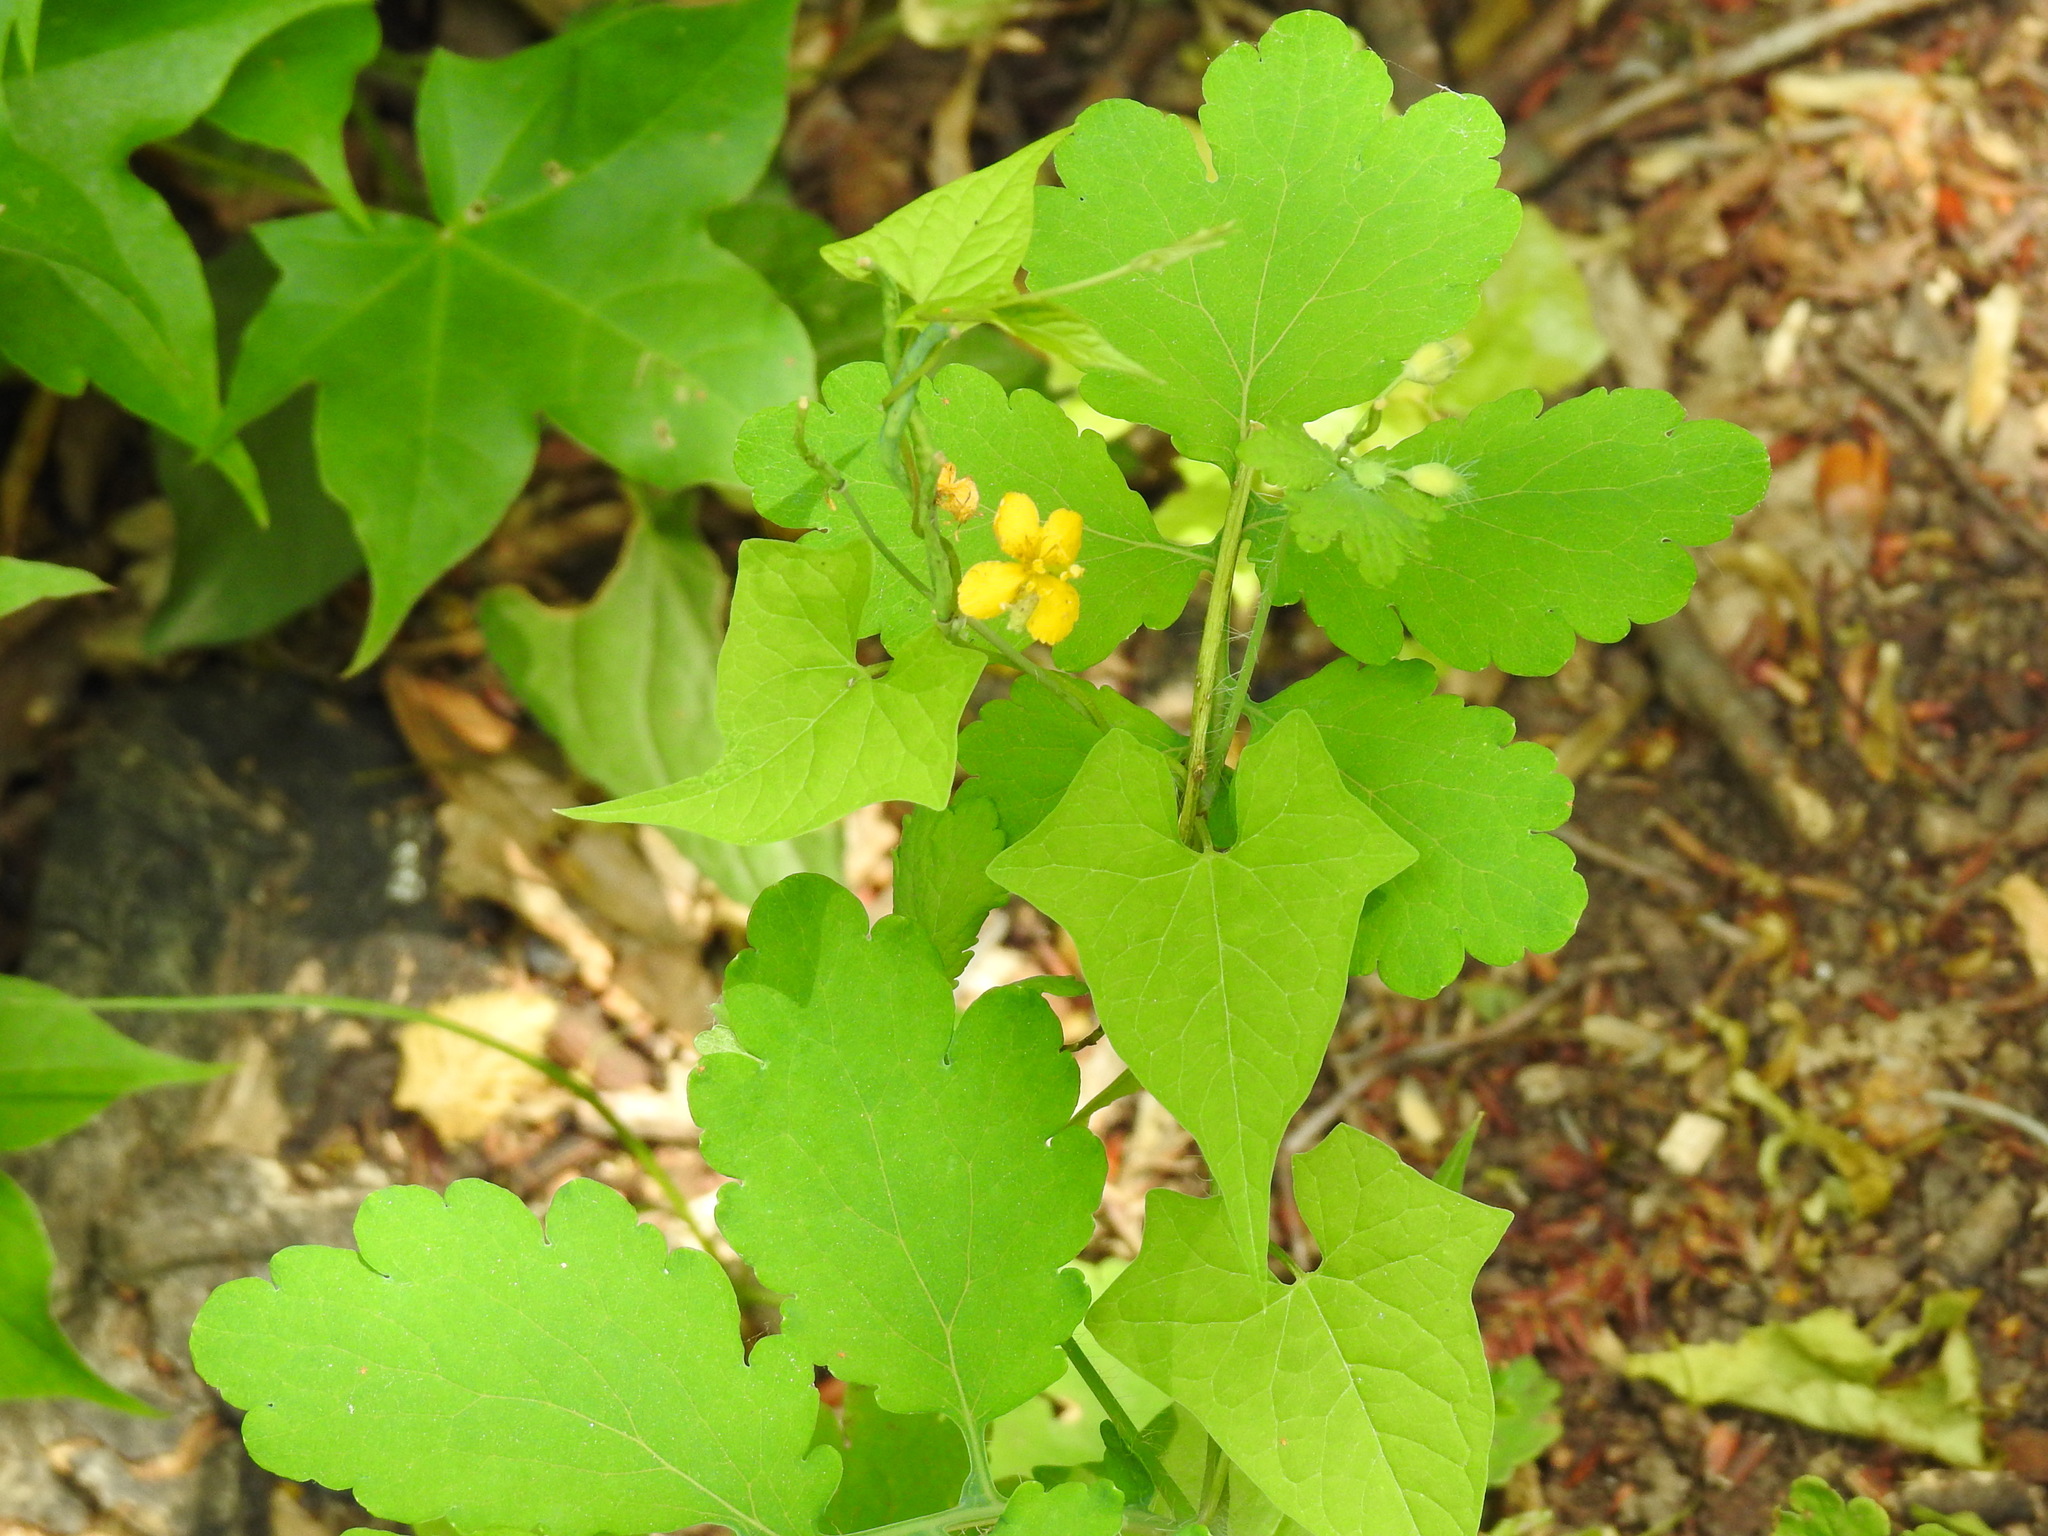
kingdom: Plantae
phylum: Tracheophyta
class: Magnoliopsida
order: Ranunculales
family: Papaveraceae
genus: Chelidonium
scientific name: Chelidonium majus
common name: Greater celandine
